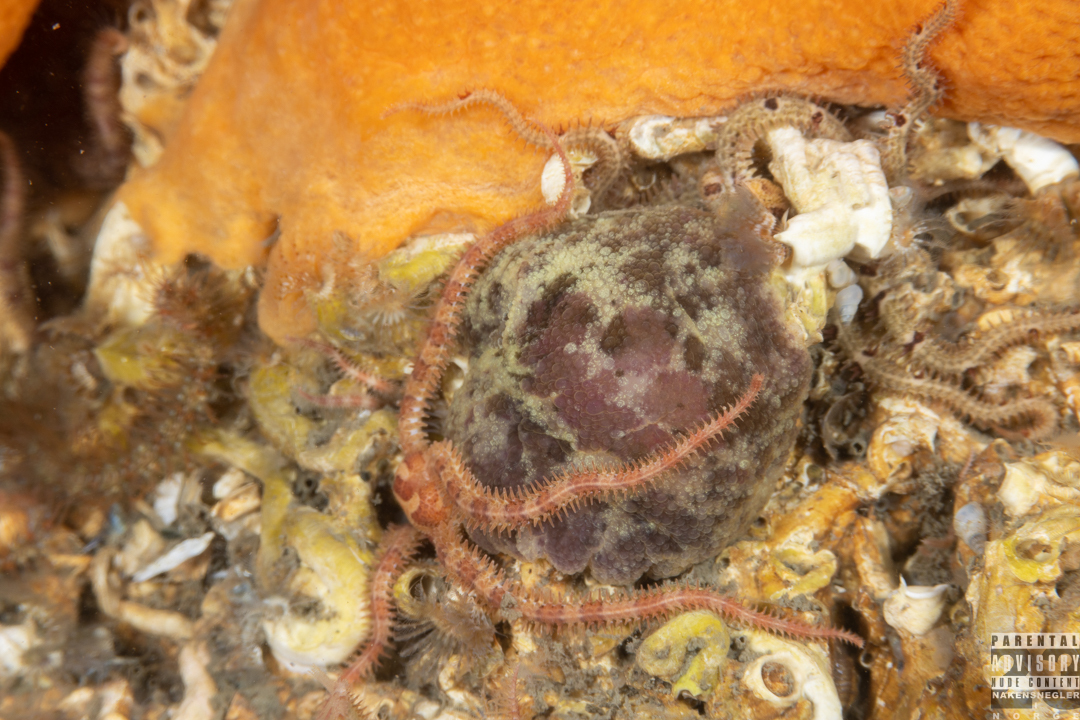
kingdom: Animalia
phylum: Mollusca
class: Gastropoda
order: Nudibranchia
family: Dorididae
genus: Doris
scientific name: Doris pseudoargus
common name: Sea lemon
